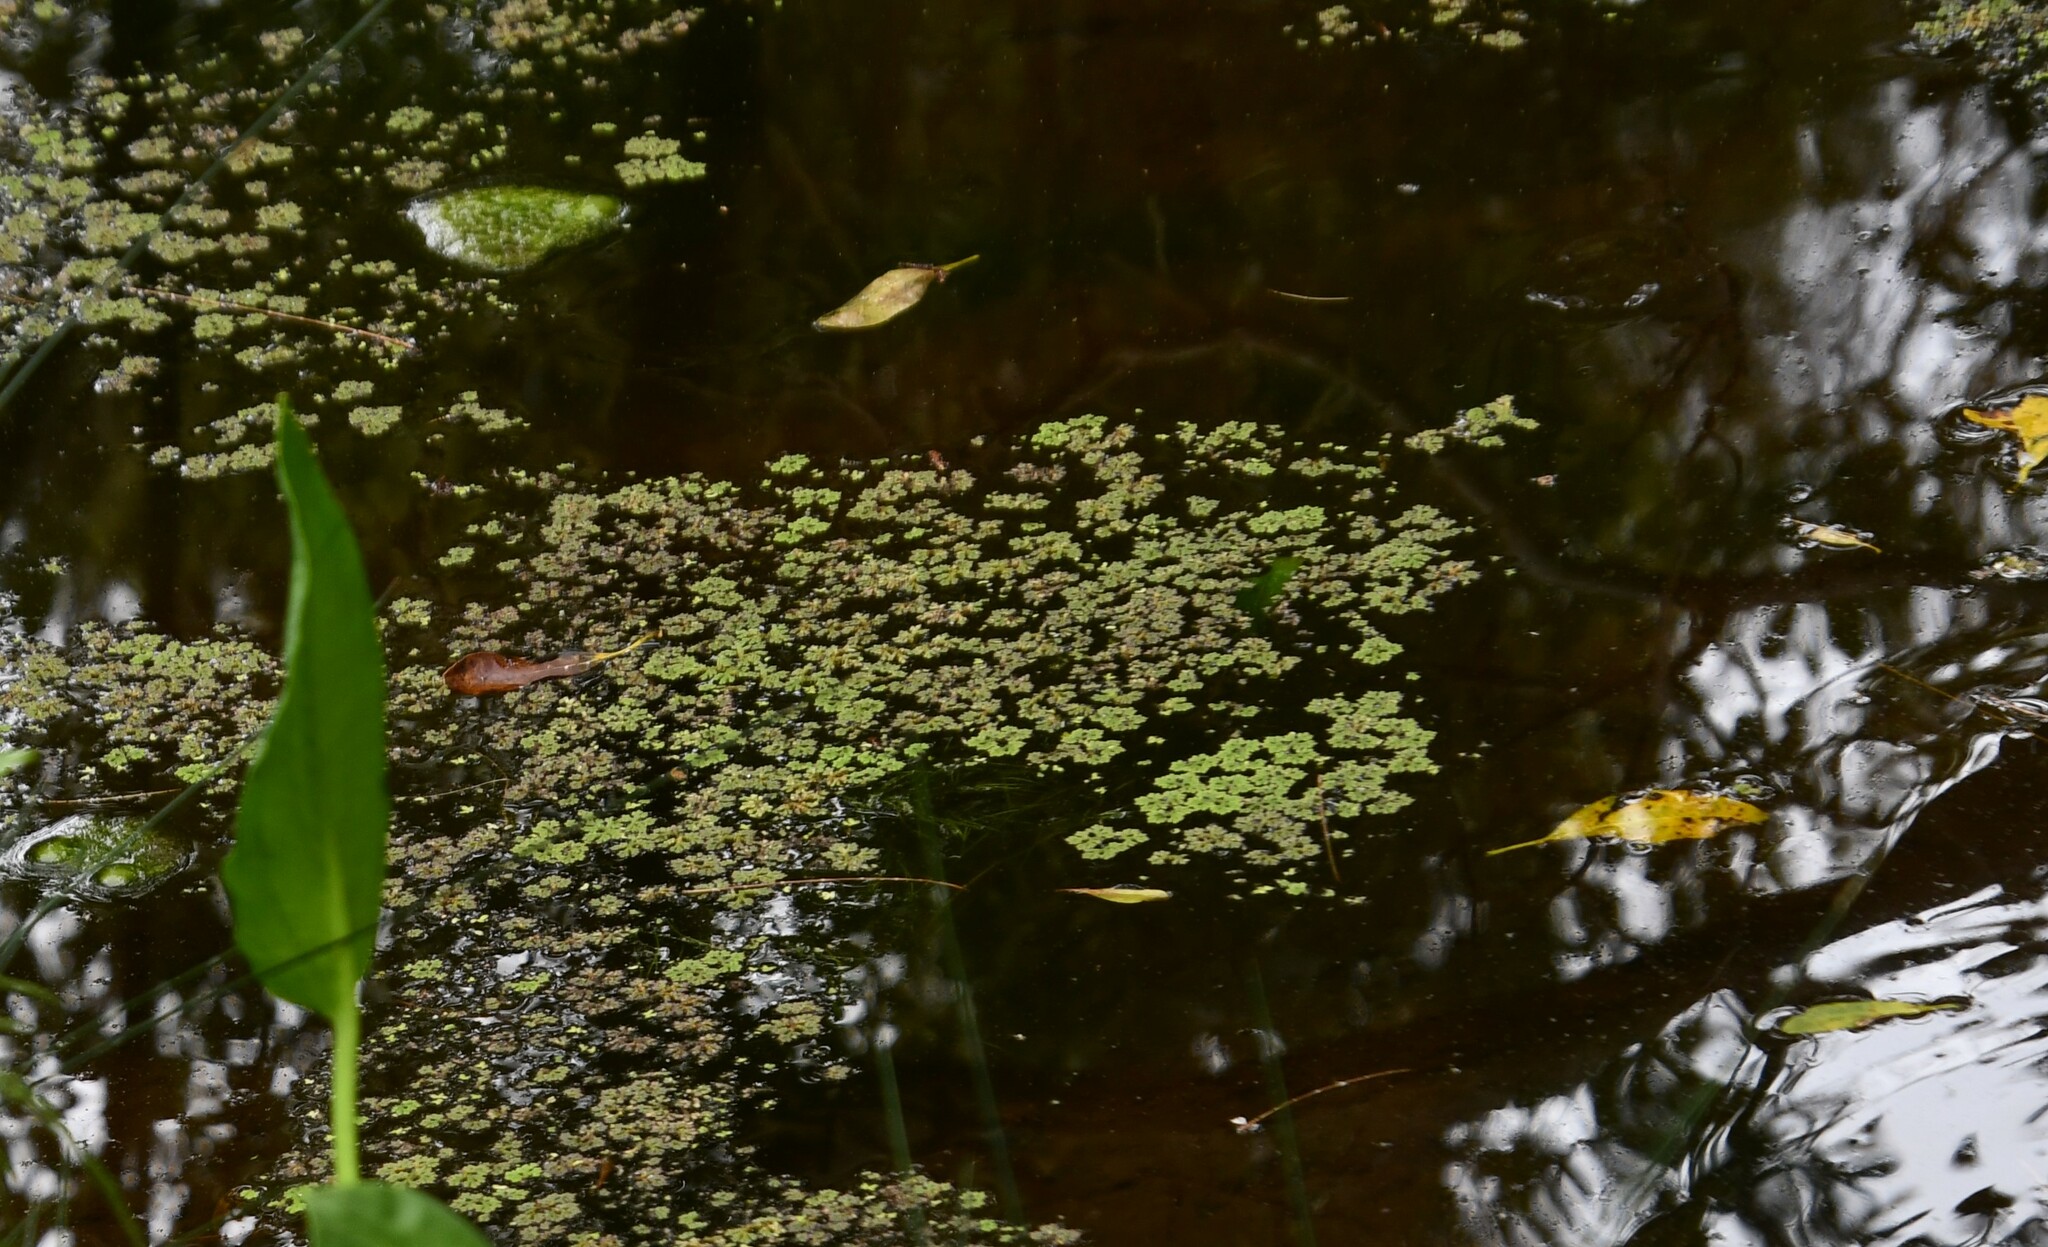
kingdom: Plantae
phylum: Tracheophyta
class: Polypodiopsida
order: Salviniales
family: Salviniaceae
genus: Azolla
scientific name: Azolla rubra
